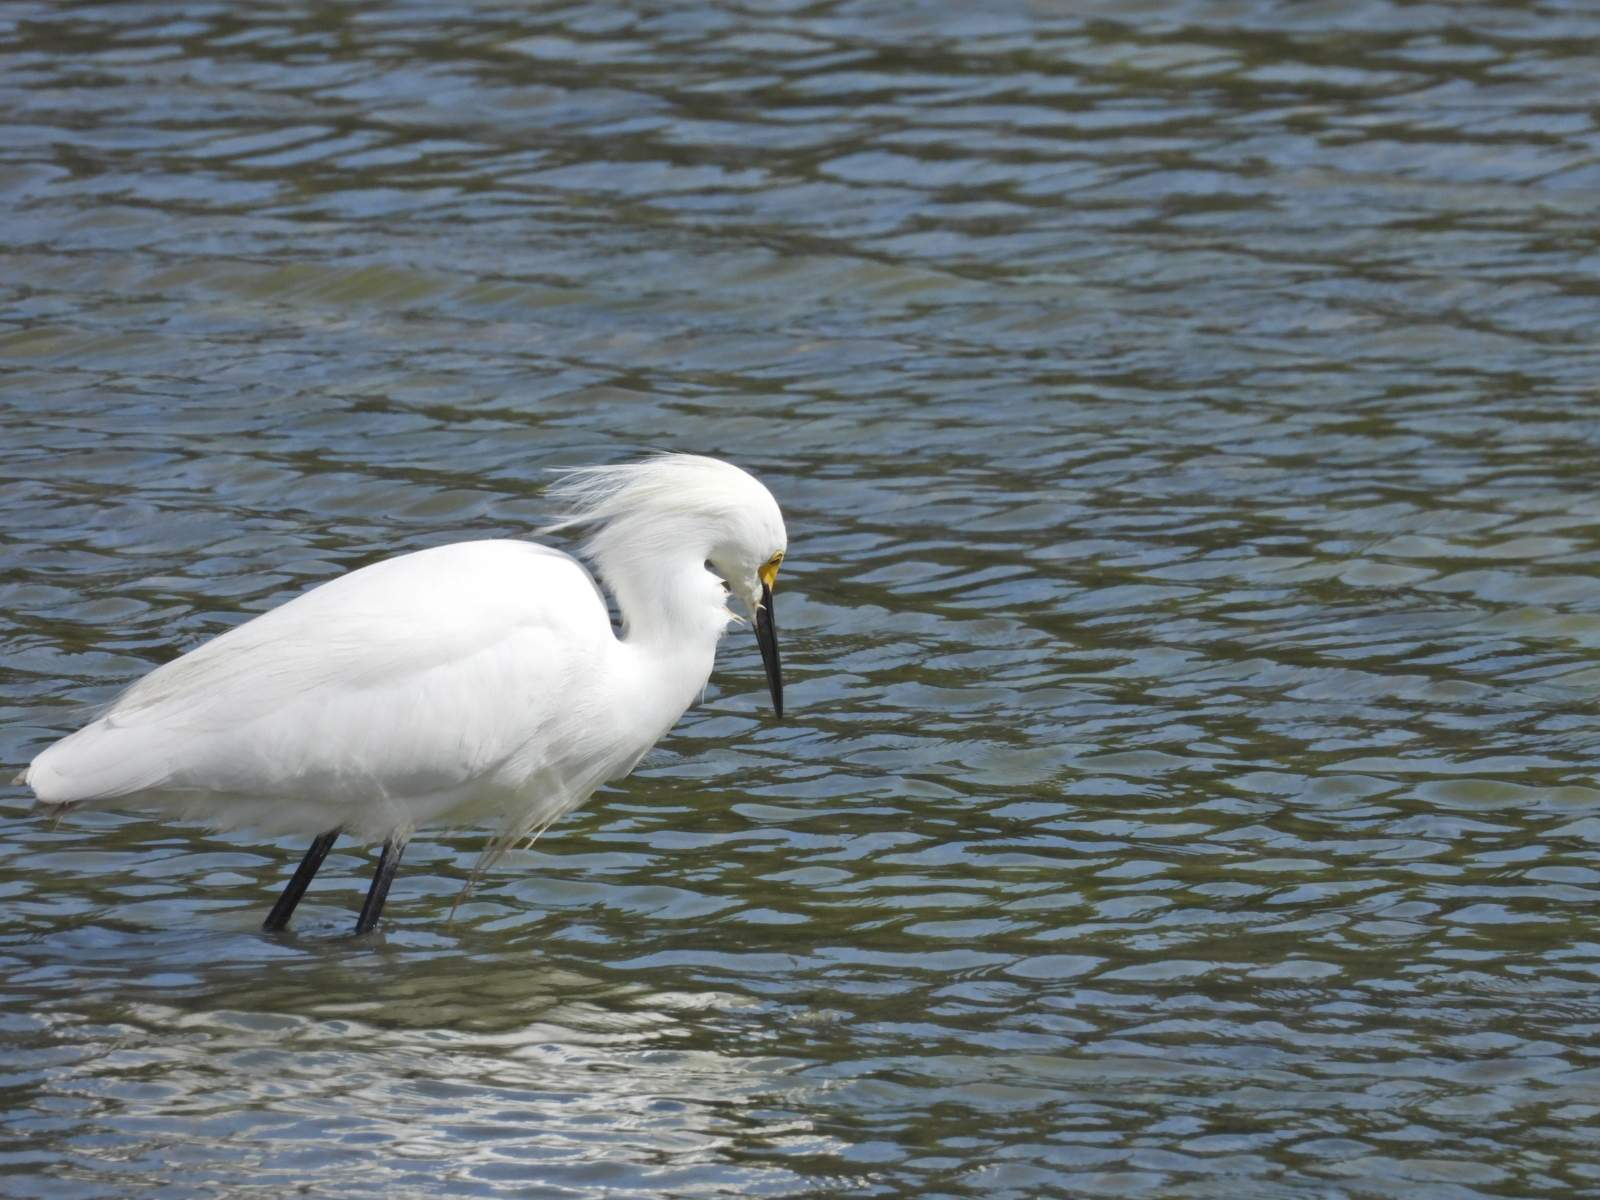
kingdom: Animalia
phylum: Chordata
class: Aves
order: Pelecaniformes
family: Ardeidae
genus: Egretta
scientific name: Egretta thula
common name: Snowy egret
